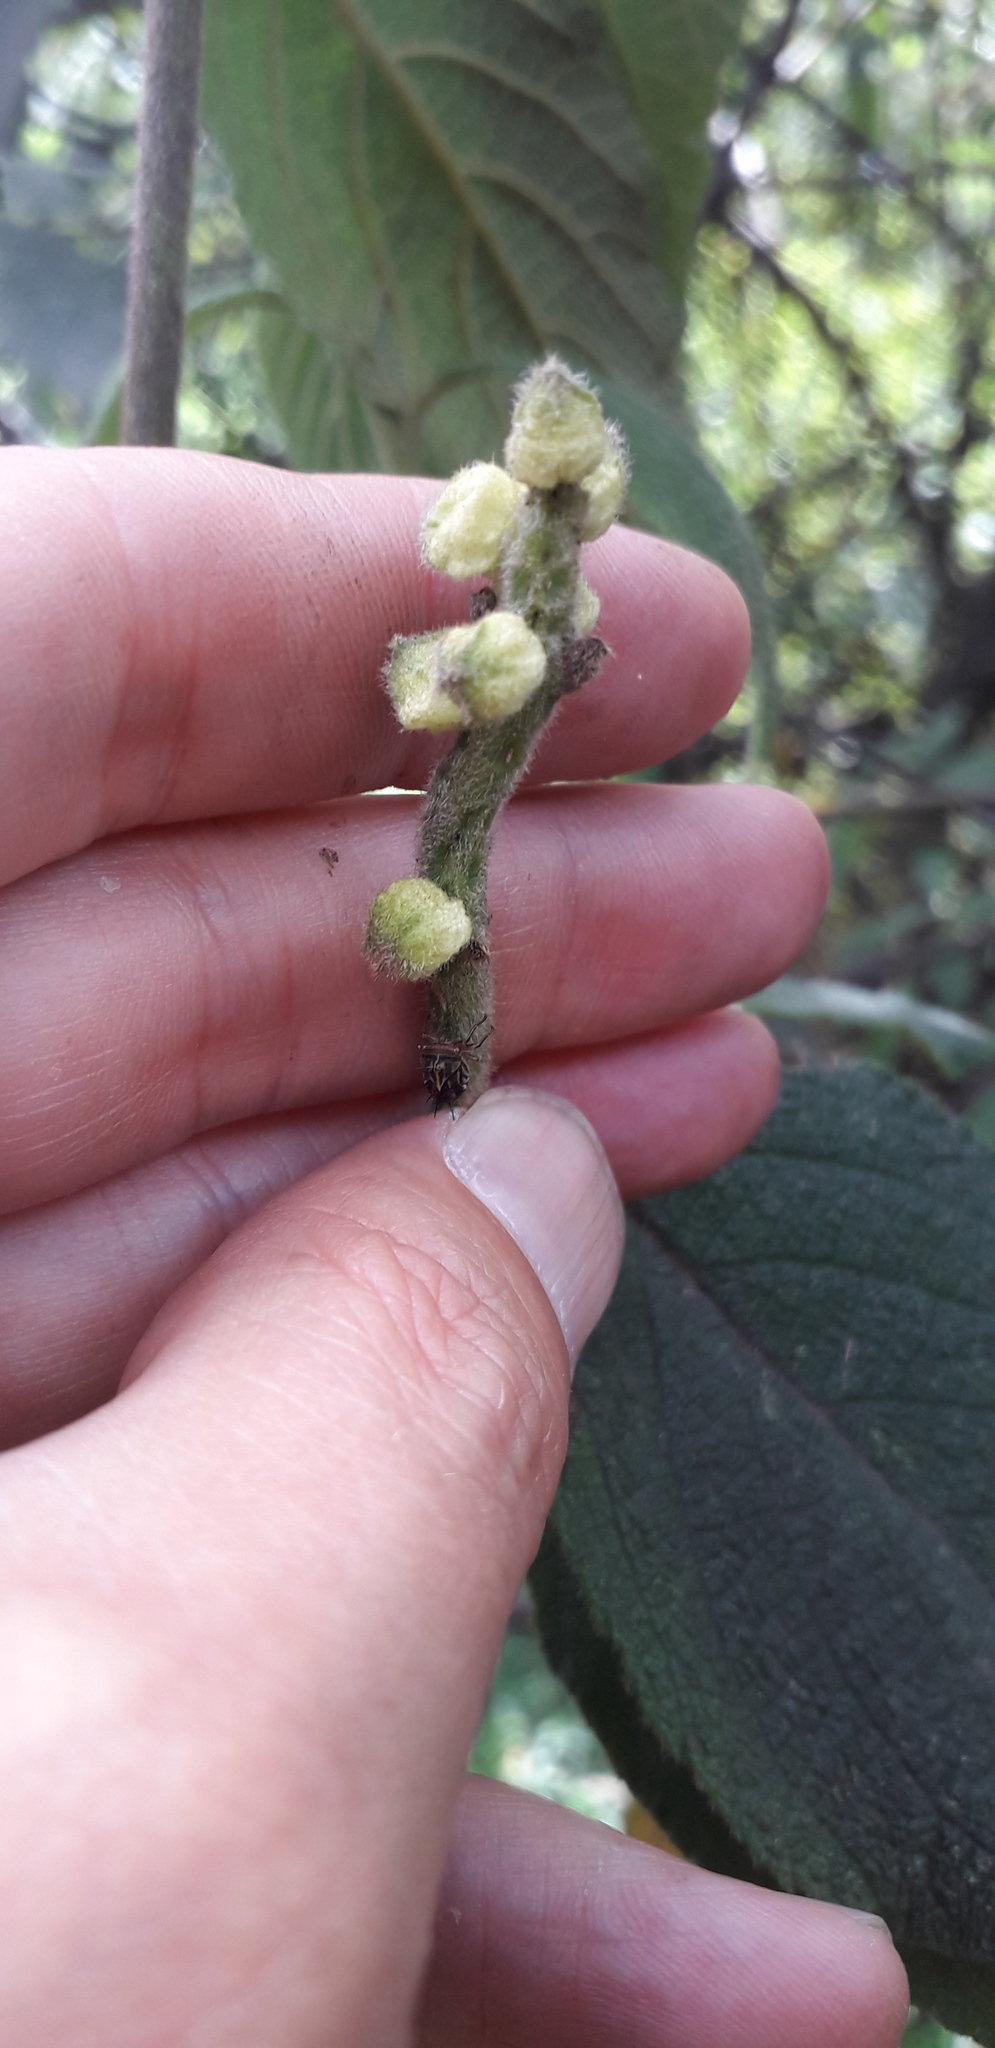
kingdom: Plantae
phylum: Tracheophyta
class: Magnoliopsida
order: Boraginales
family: Cordiaceae
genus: Varronia
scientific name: Varronia cylindrostachya
